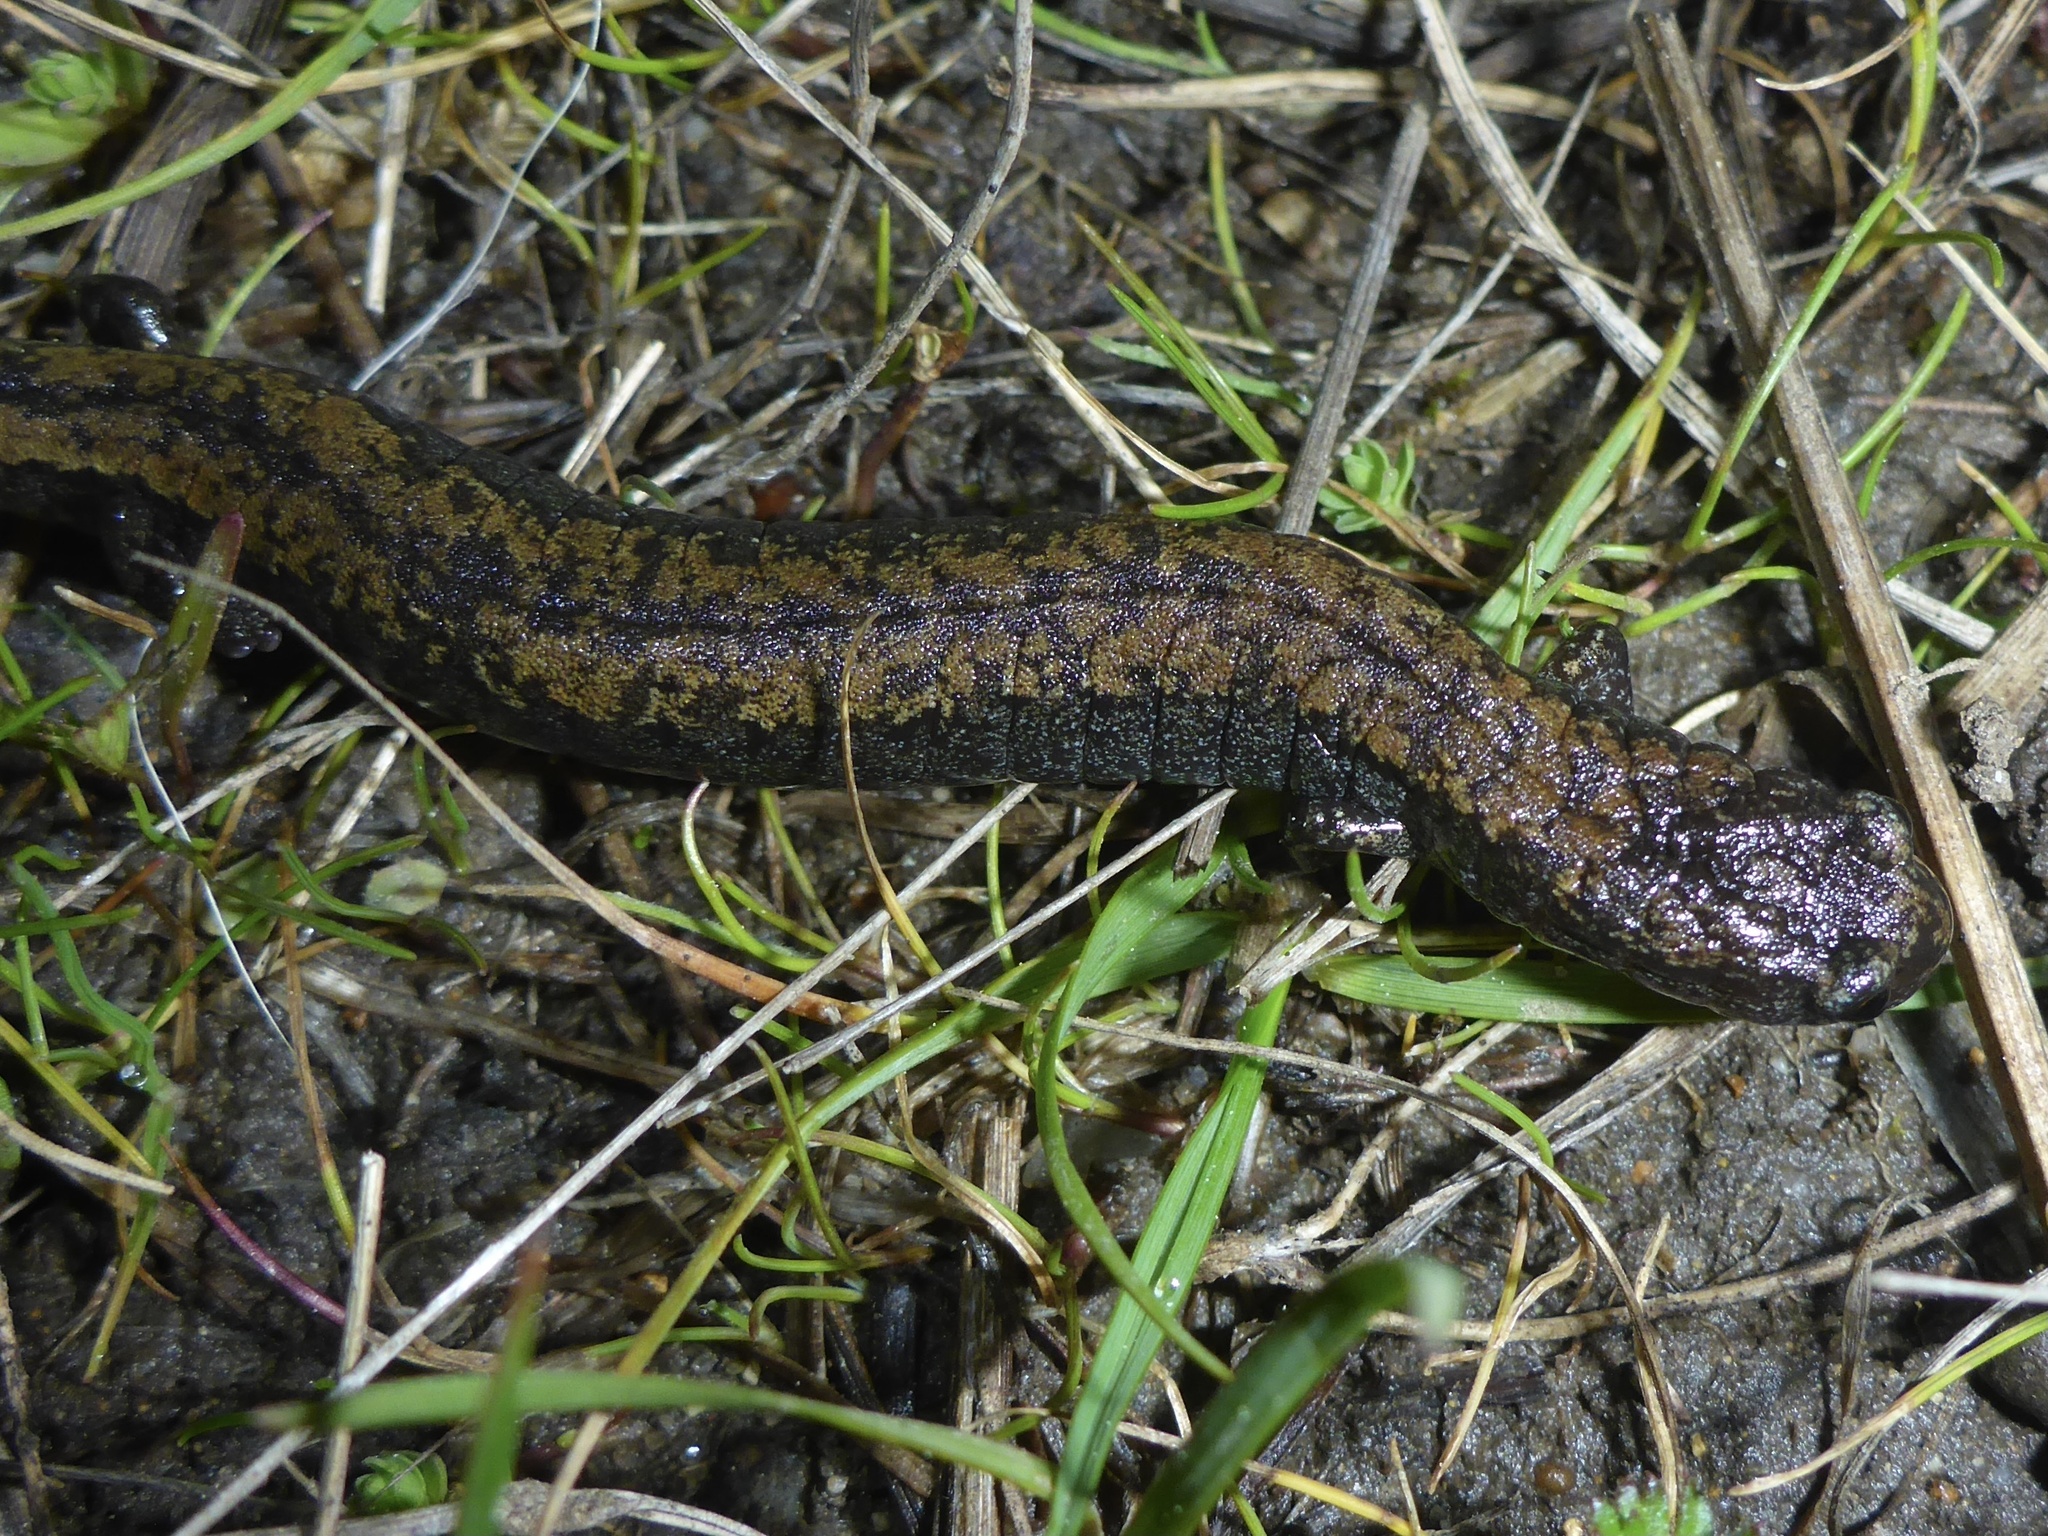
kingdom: Animalia
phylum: Chordata
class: Amphibia
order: Caudata
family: Plethodontidae
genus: Batrachoseps
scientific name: Batrachoseps attenuatus
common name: California slender salamander
